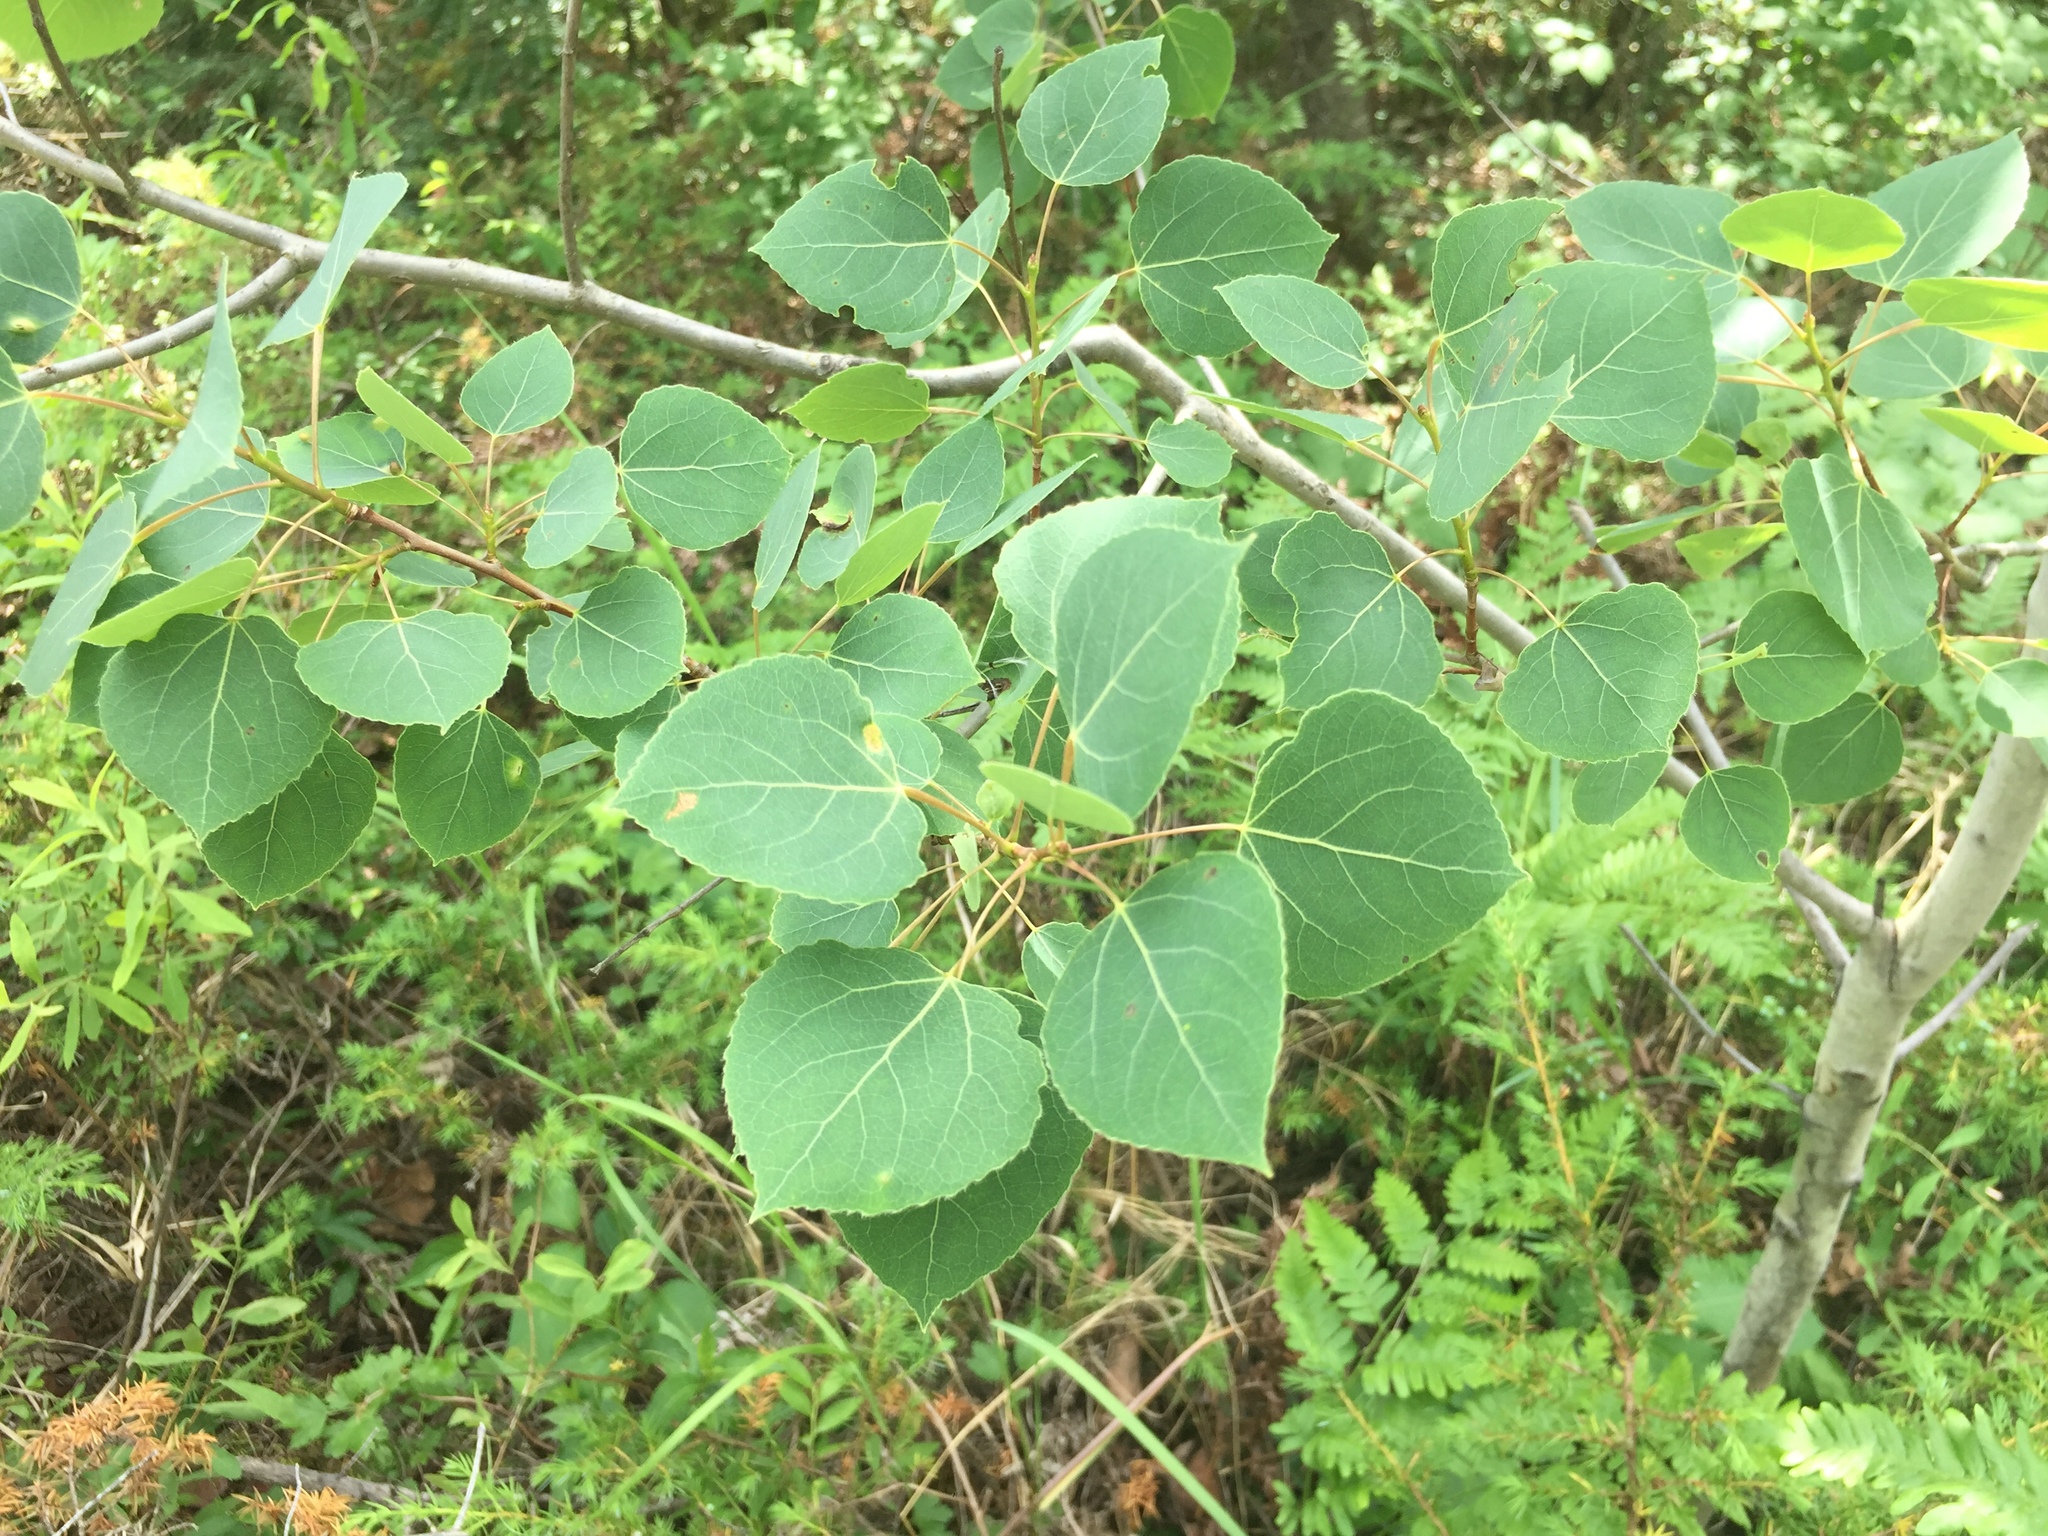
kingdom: Plantae
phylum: Tracheophyta
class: Magnoliopsida
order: Malpighiales
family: Salicaceae
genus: Populus
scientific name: Populus tremuloides
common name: Quaking aspen
